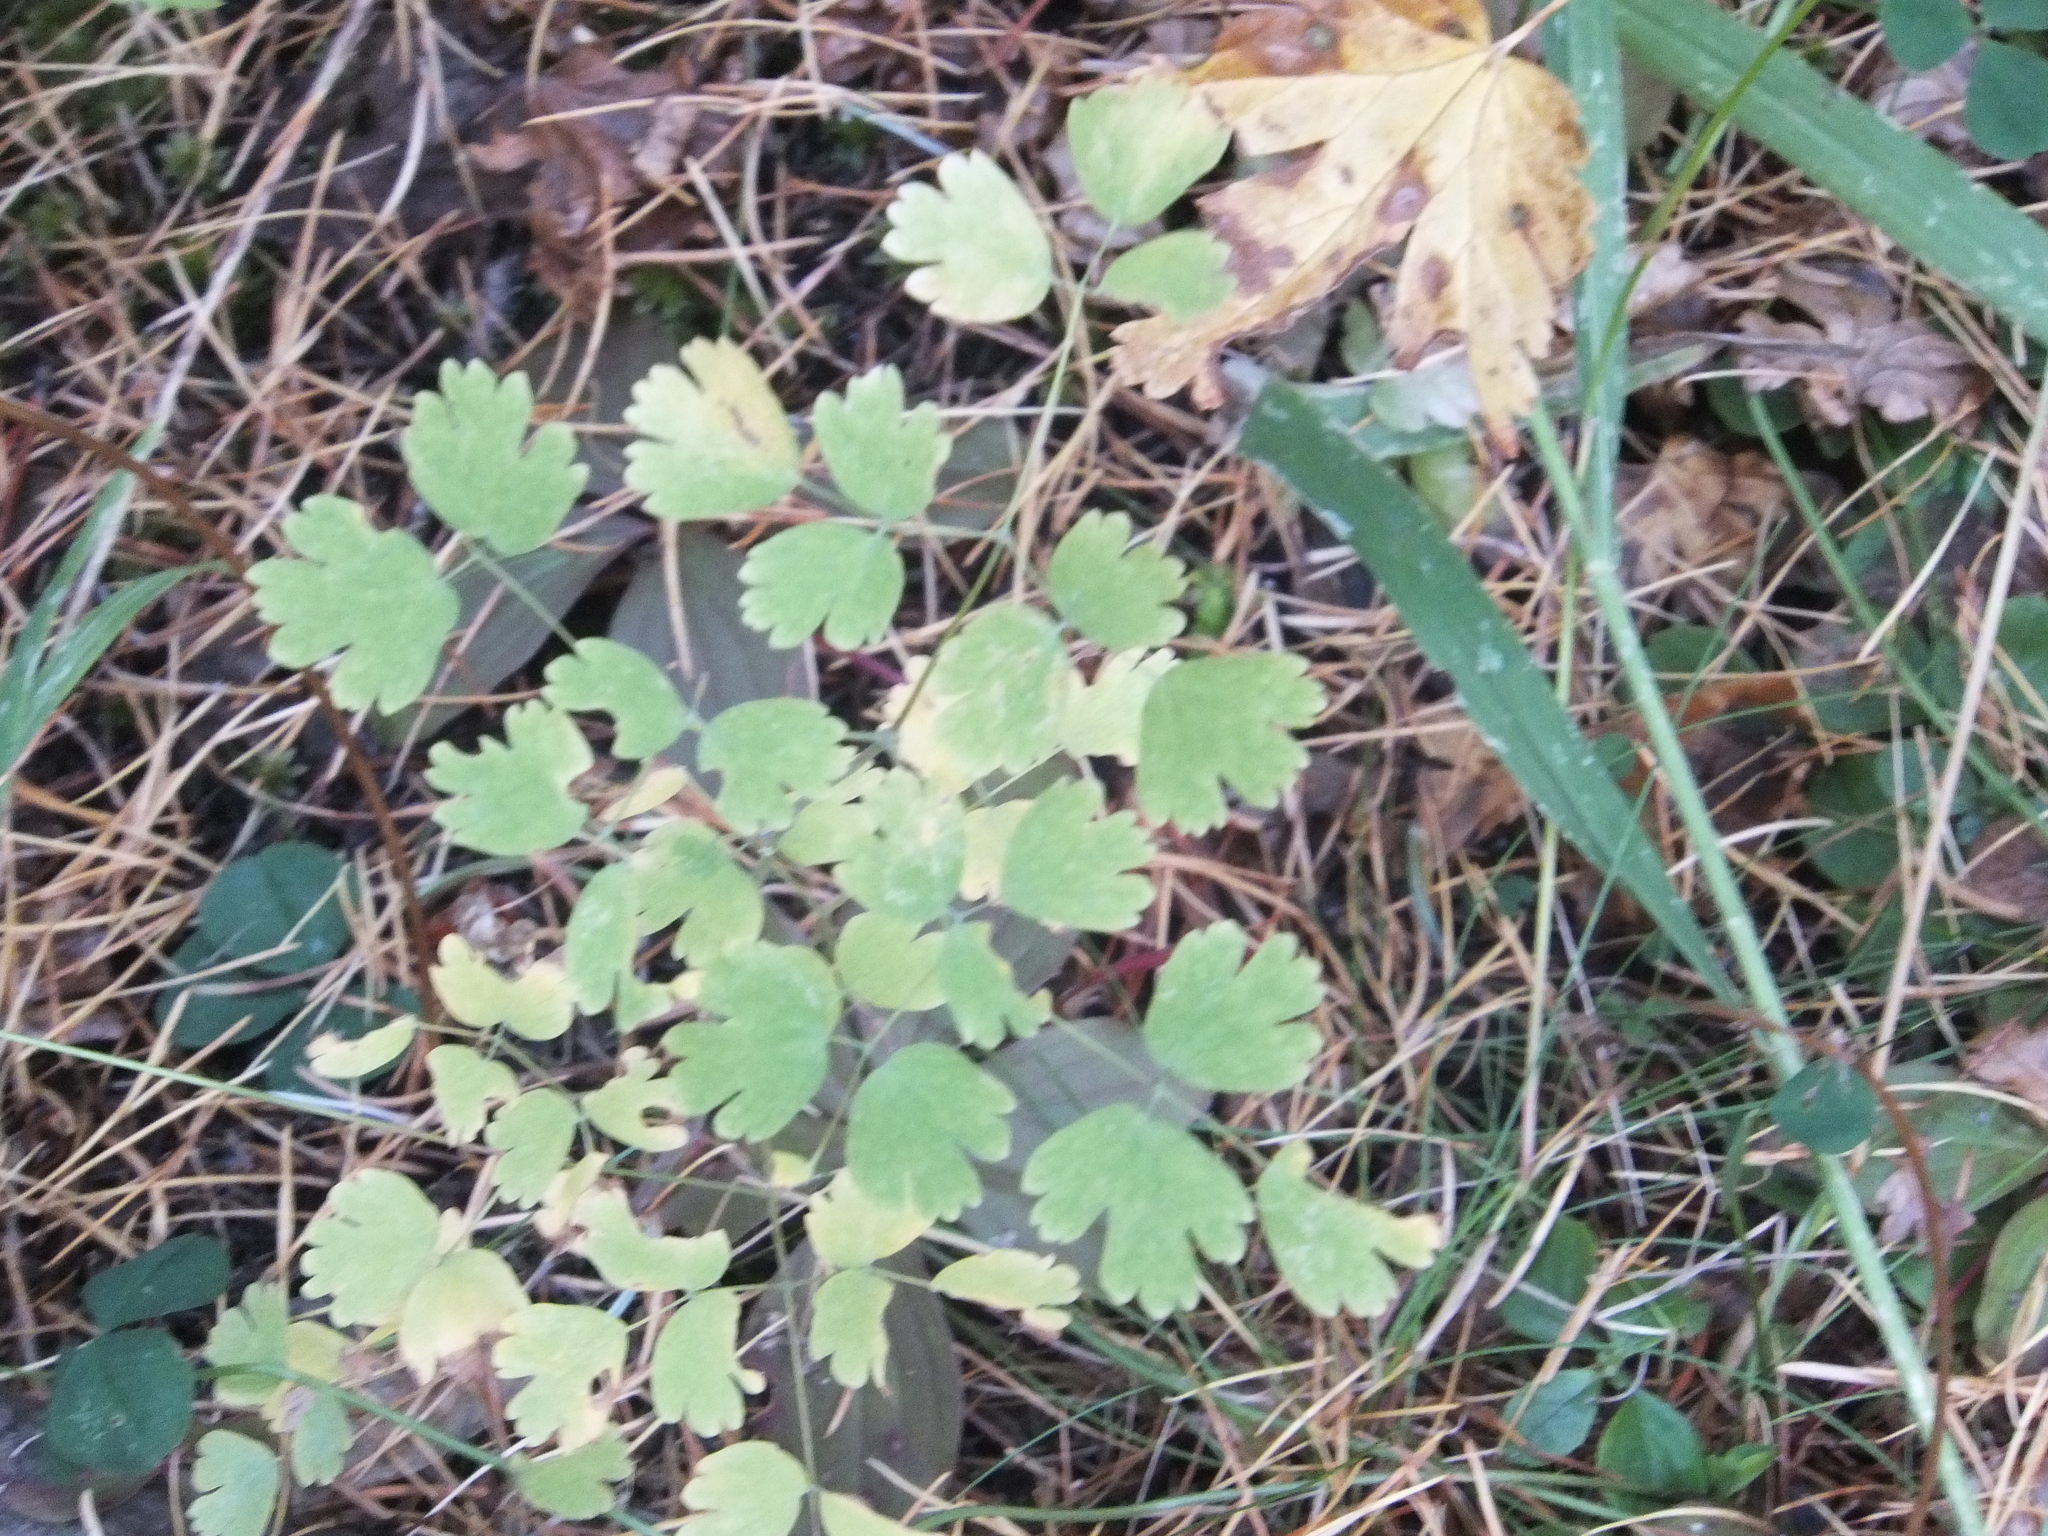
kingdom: Plantae
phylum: Tracheophyta
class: Magnoliopsida
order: Ranunculales
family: Ranunculaceae
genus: Thalictrum
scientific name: Thalictrum occidentale
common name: Western meadow-rue
